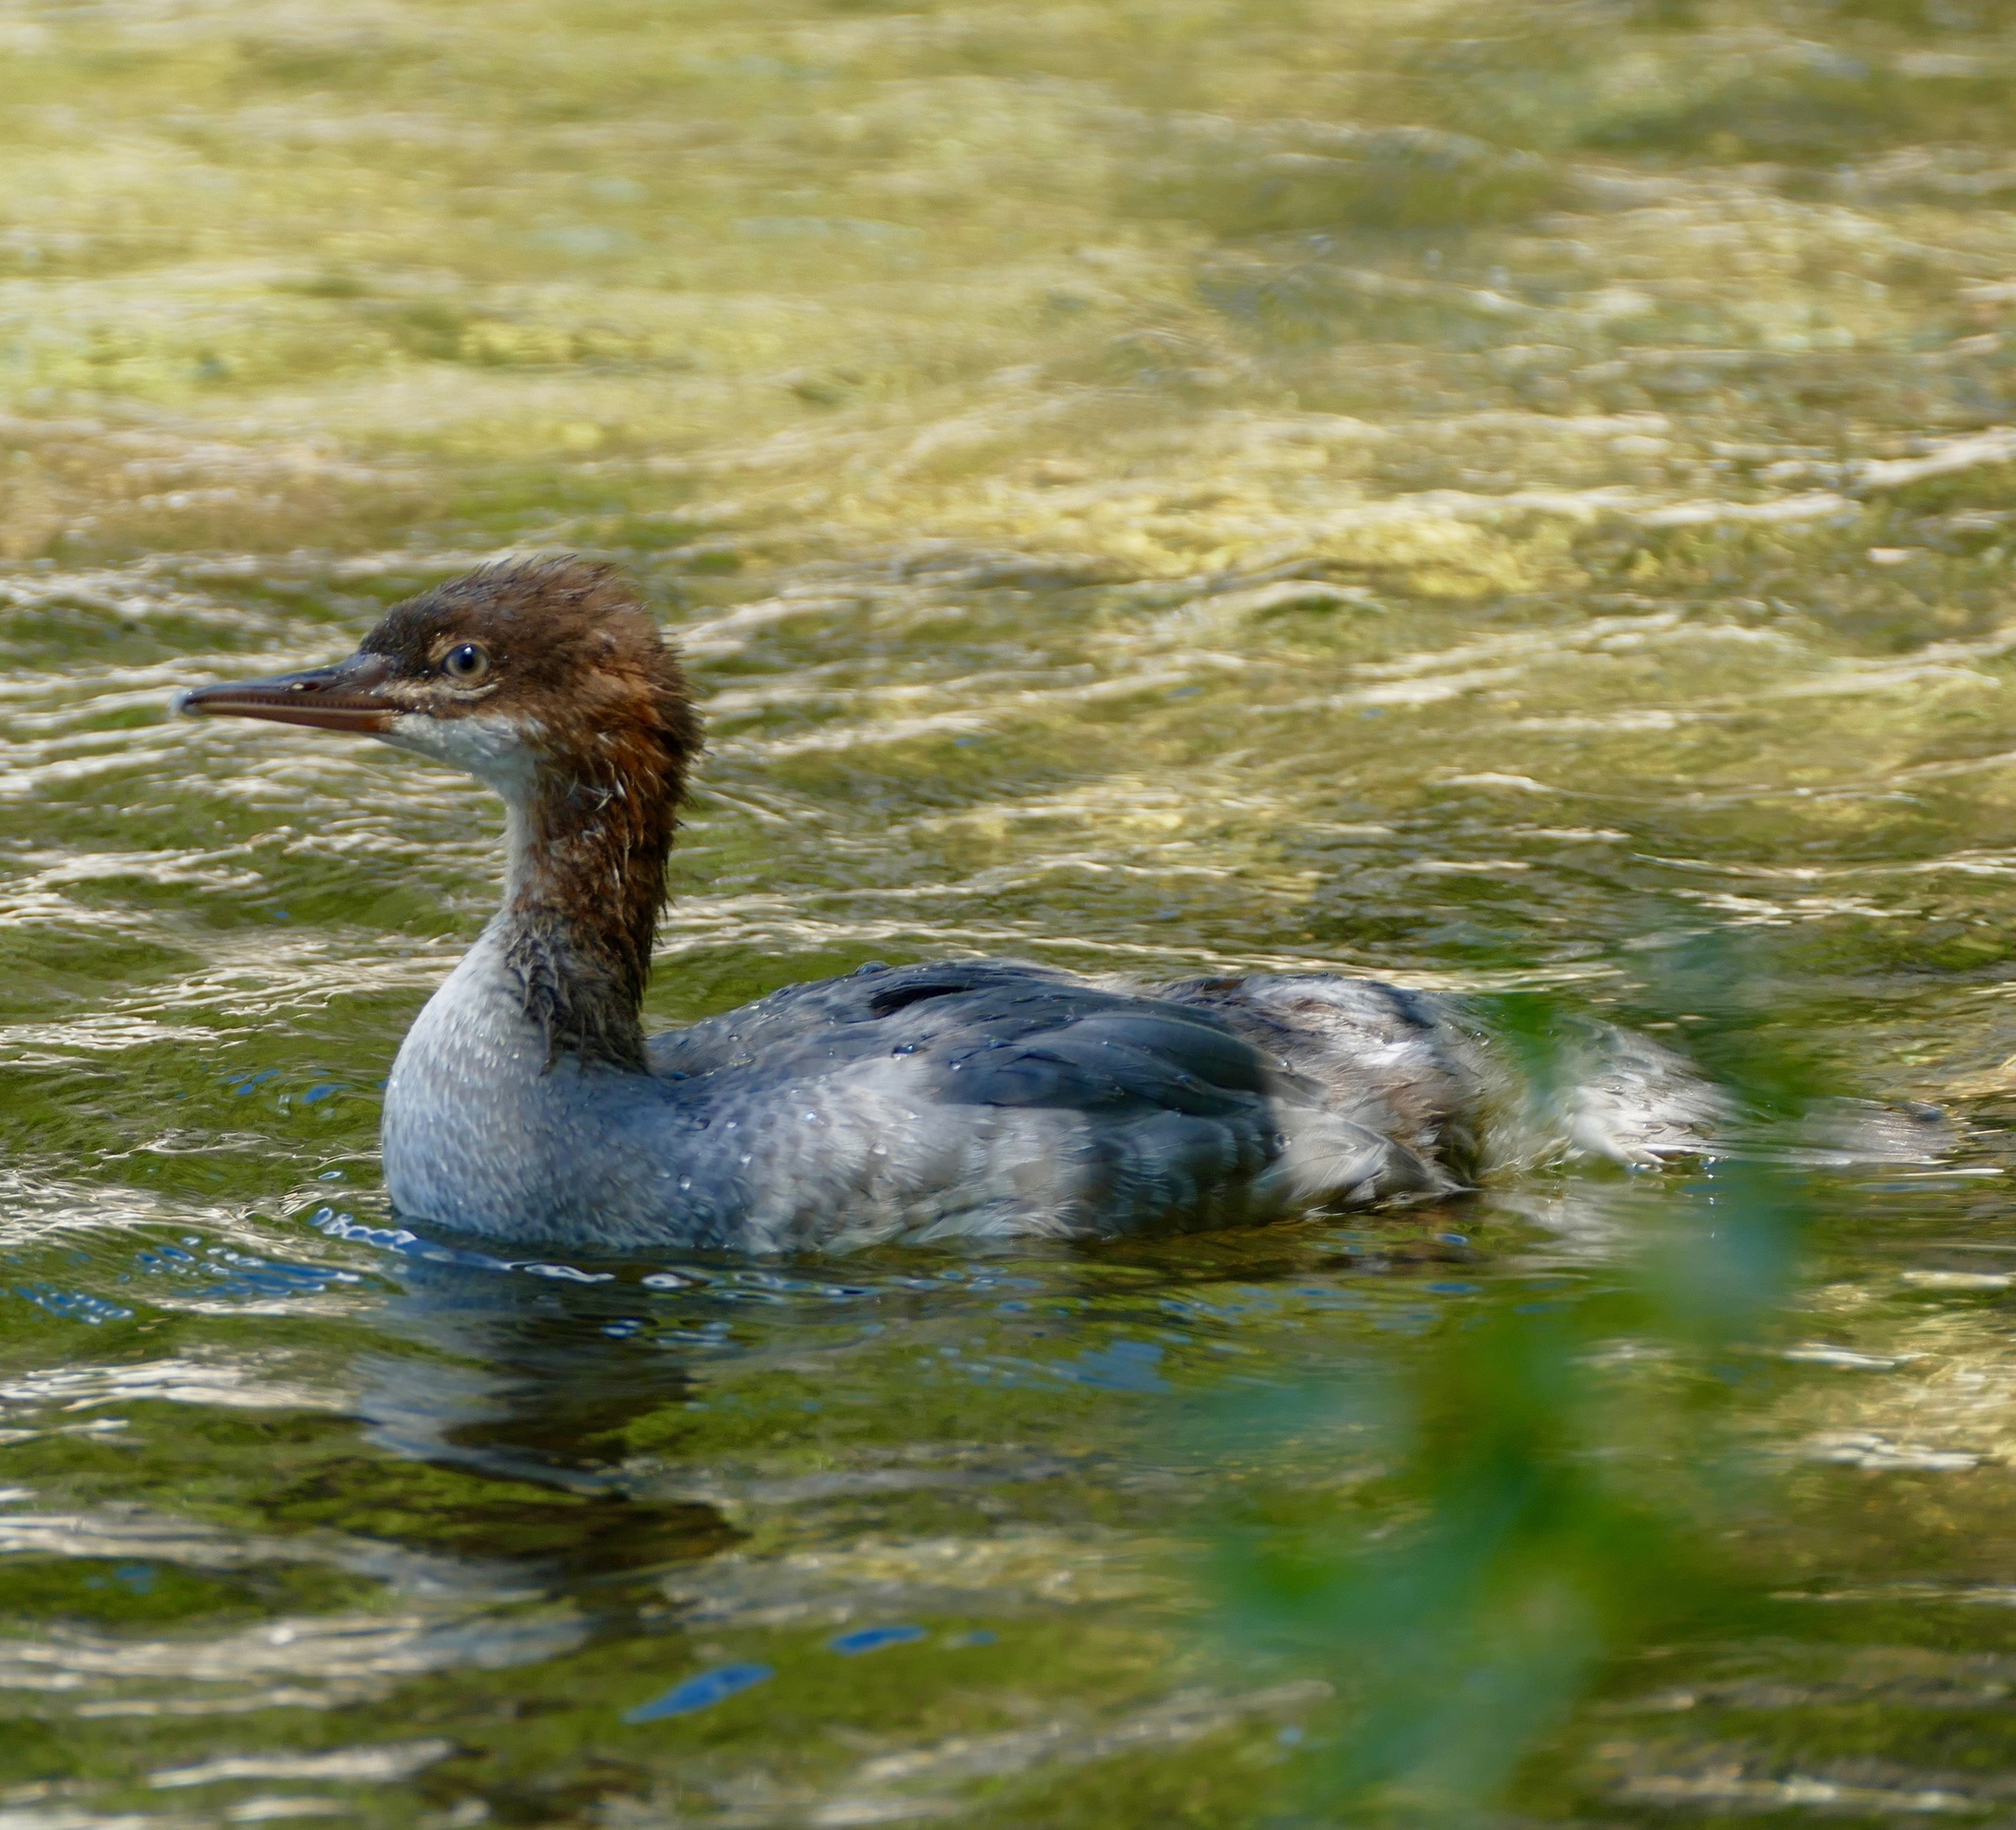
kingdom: Animalia
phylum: Chordata
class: Aves
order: Anseriformes
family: Anatidae
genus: Mergus
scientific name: Mergus merganser
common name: Common merganser
